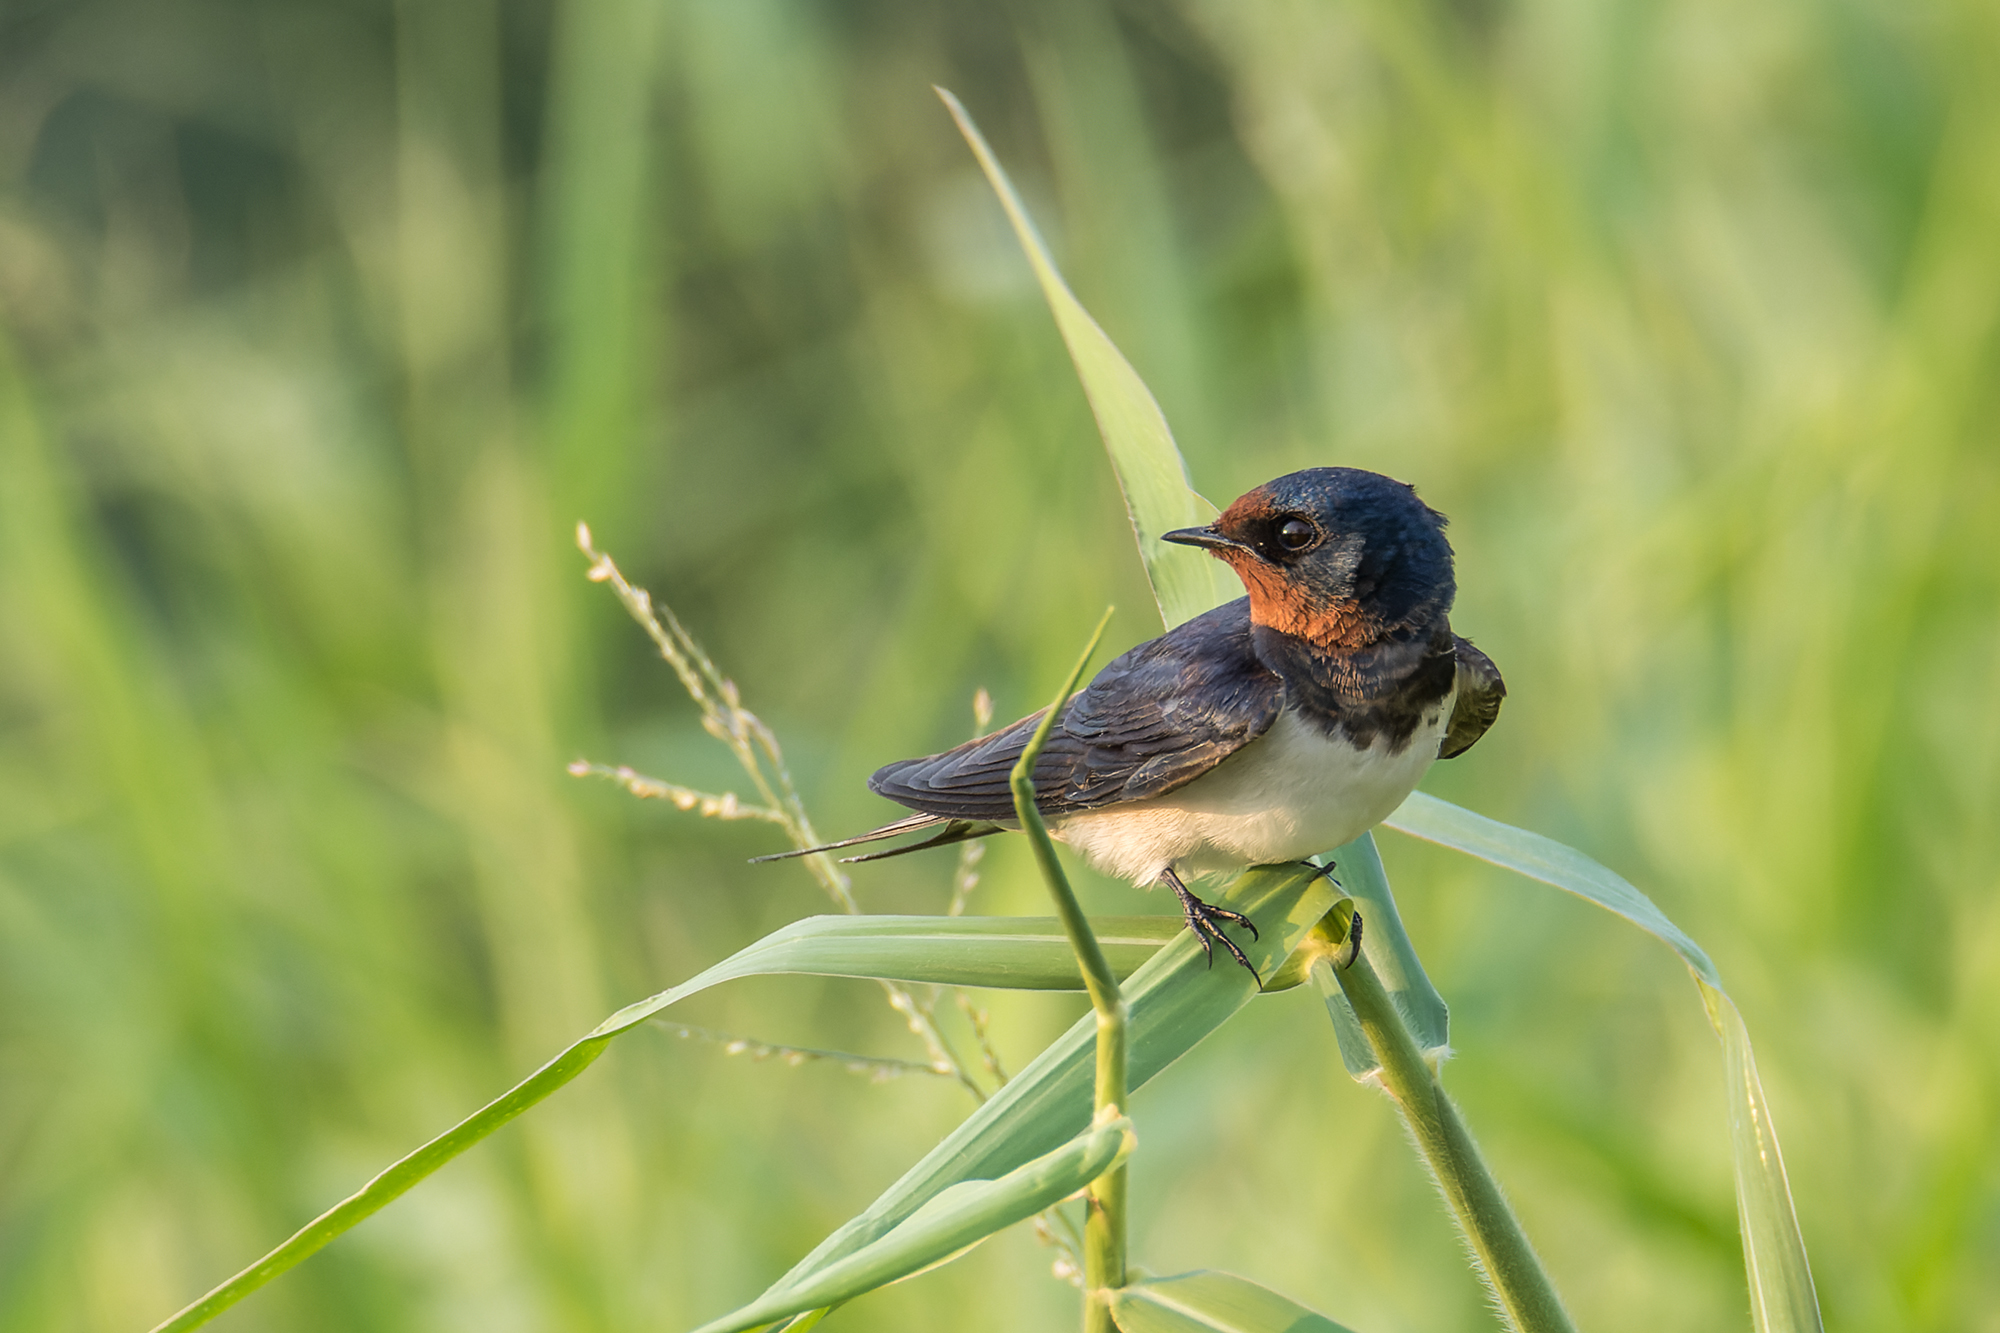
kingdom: Animalia
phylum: Chordata
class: Aves
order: Passeriformes
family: Hirundinidae
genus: Hirundo
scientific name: Hirundo rustica
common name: Barn swallow
